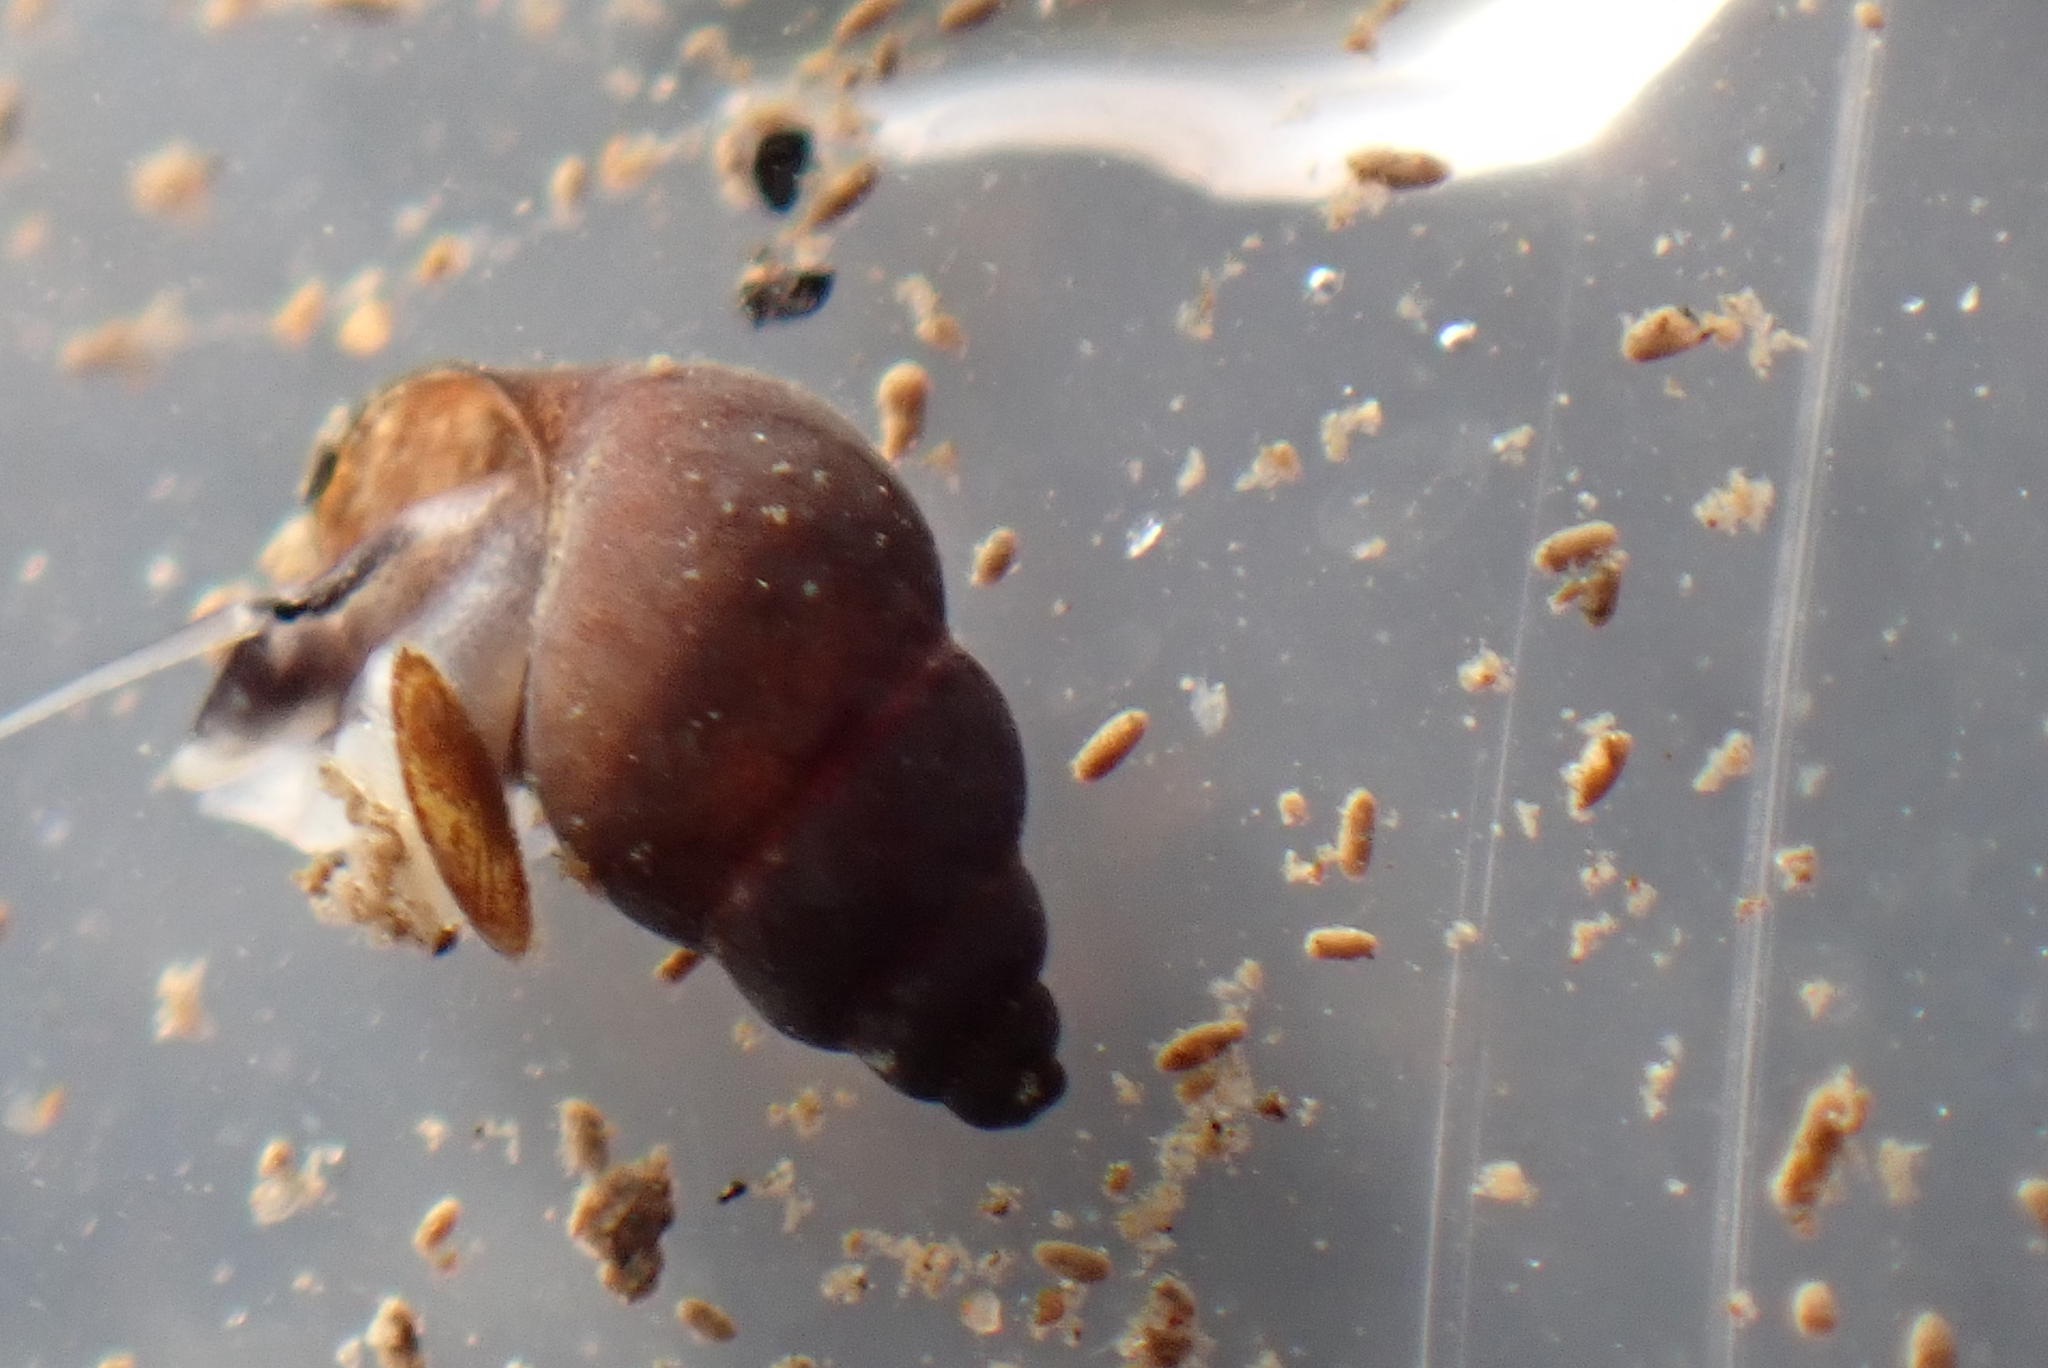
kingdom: Animalia
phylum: Mollusca
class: Gastropoda
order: Littorinimorpha
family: Tateidae
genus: Potamopyrgus
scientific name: Potamopyrgus antipodarum
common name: Jenkins' spire snail
